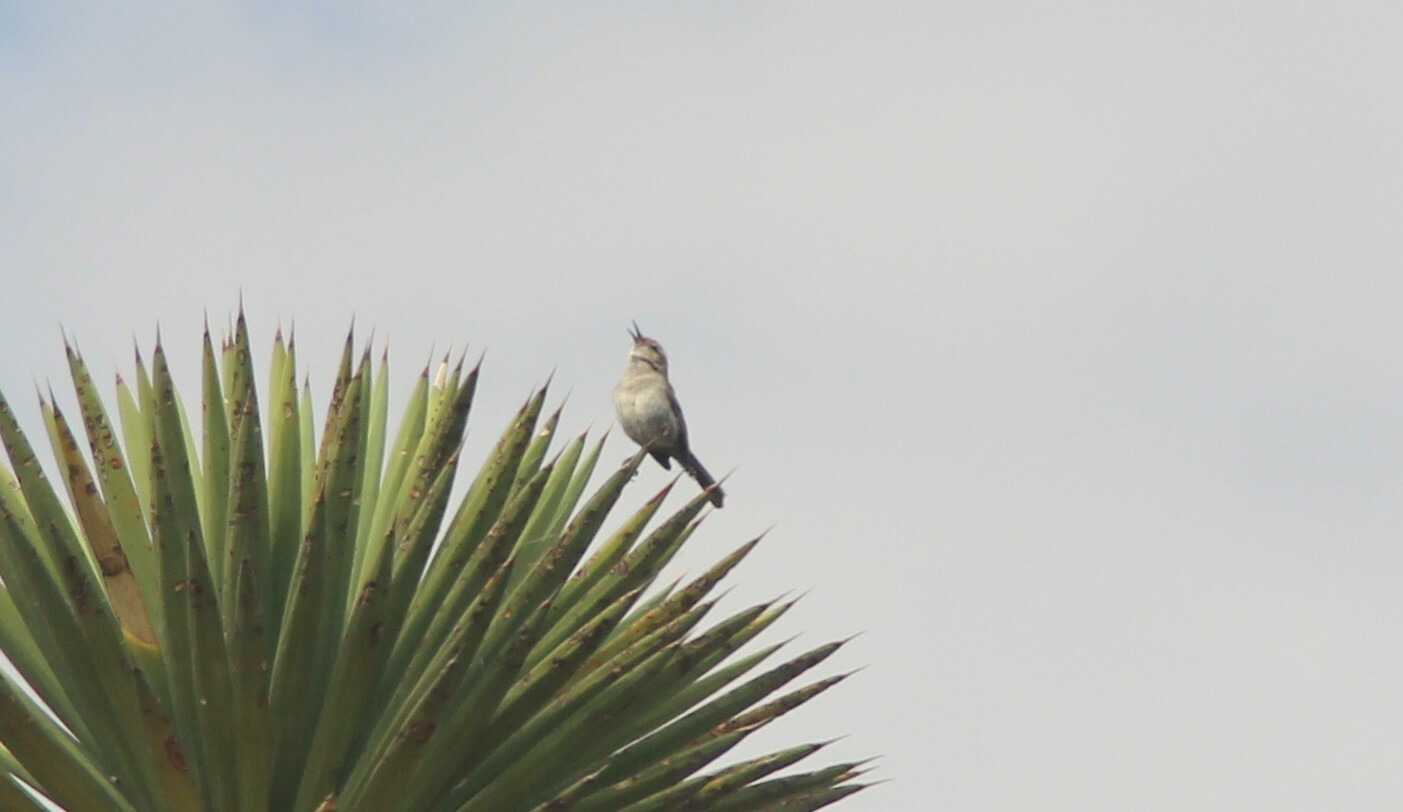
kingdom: Animalia
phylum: Chordata
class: Aves
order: Passeriformes
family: Troglodytidae
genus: Thryomanes
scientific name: Thryomanes bewickii
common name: Bewick's wren
